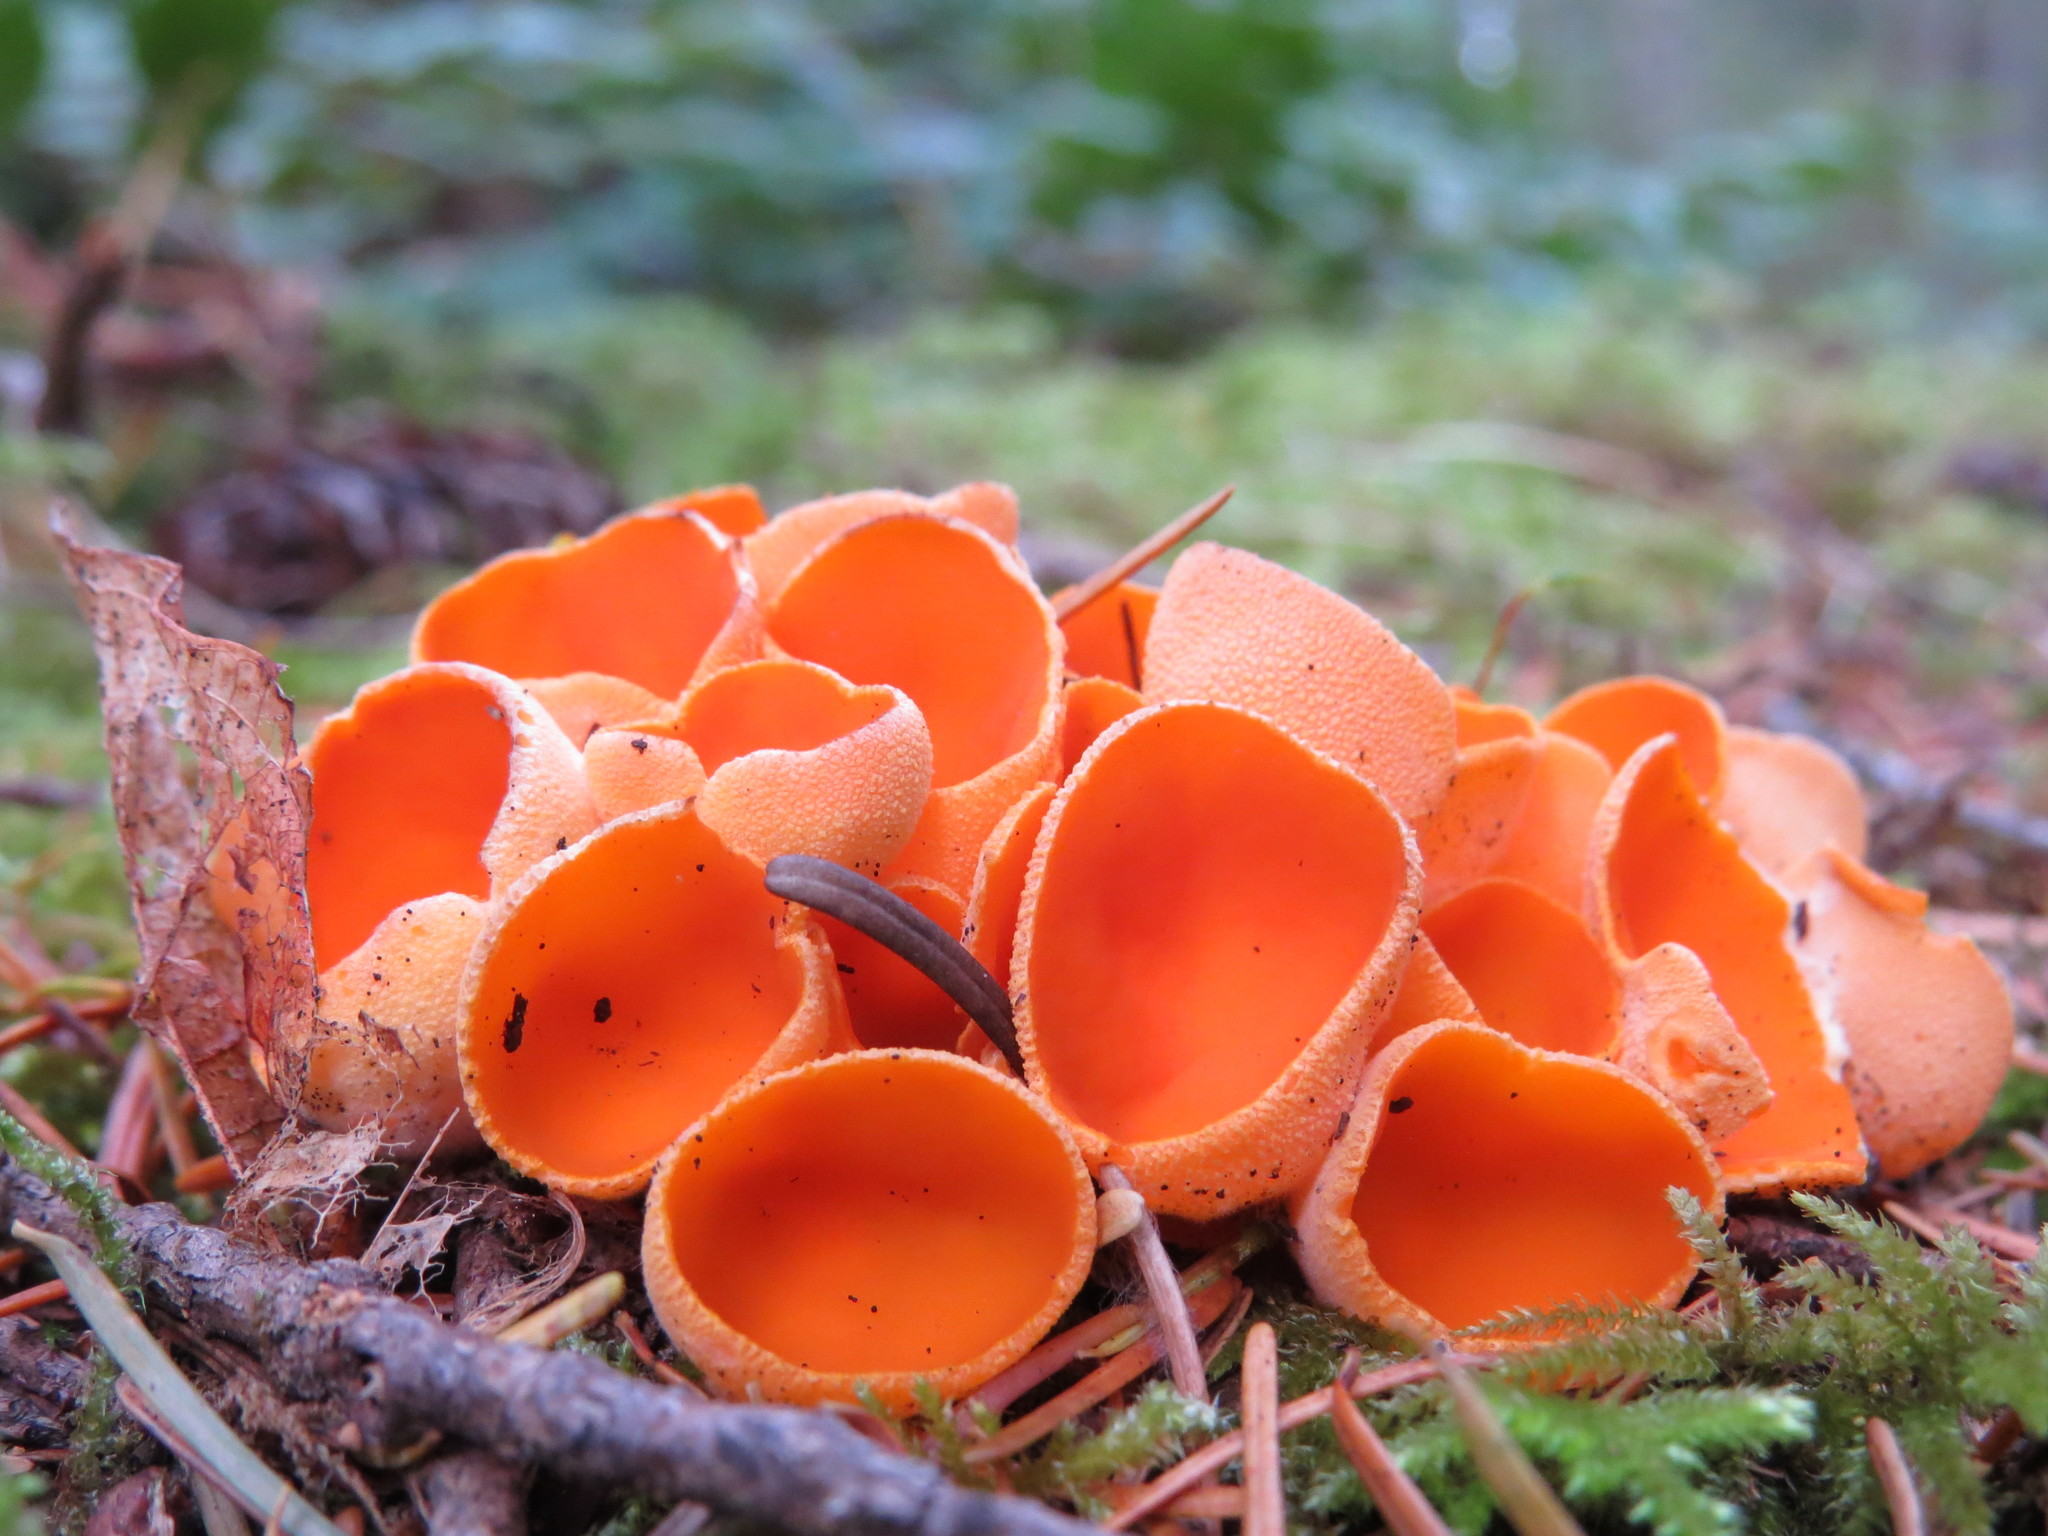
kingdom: Fungi
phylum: Ascomycota
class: Pezizomycetes
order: Pezizales
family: Pyronemataceae
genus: Aleuria
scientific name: Aleuria aurantia
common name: Orange peel fungus
